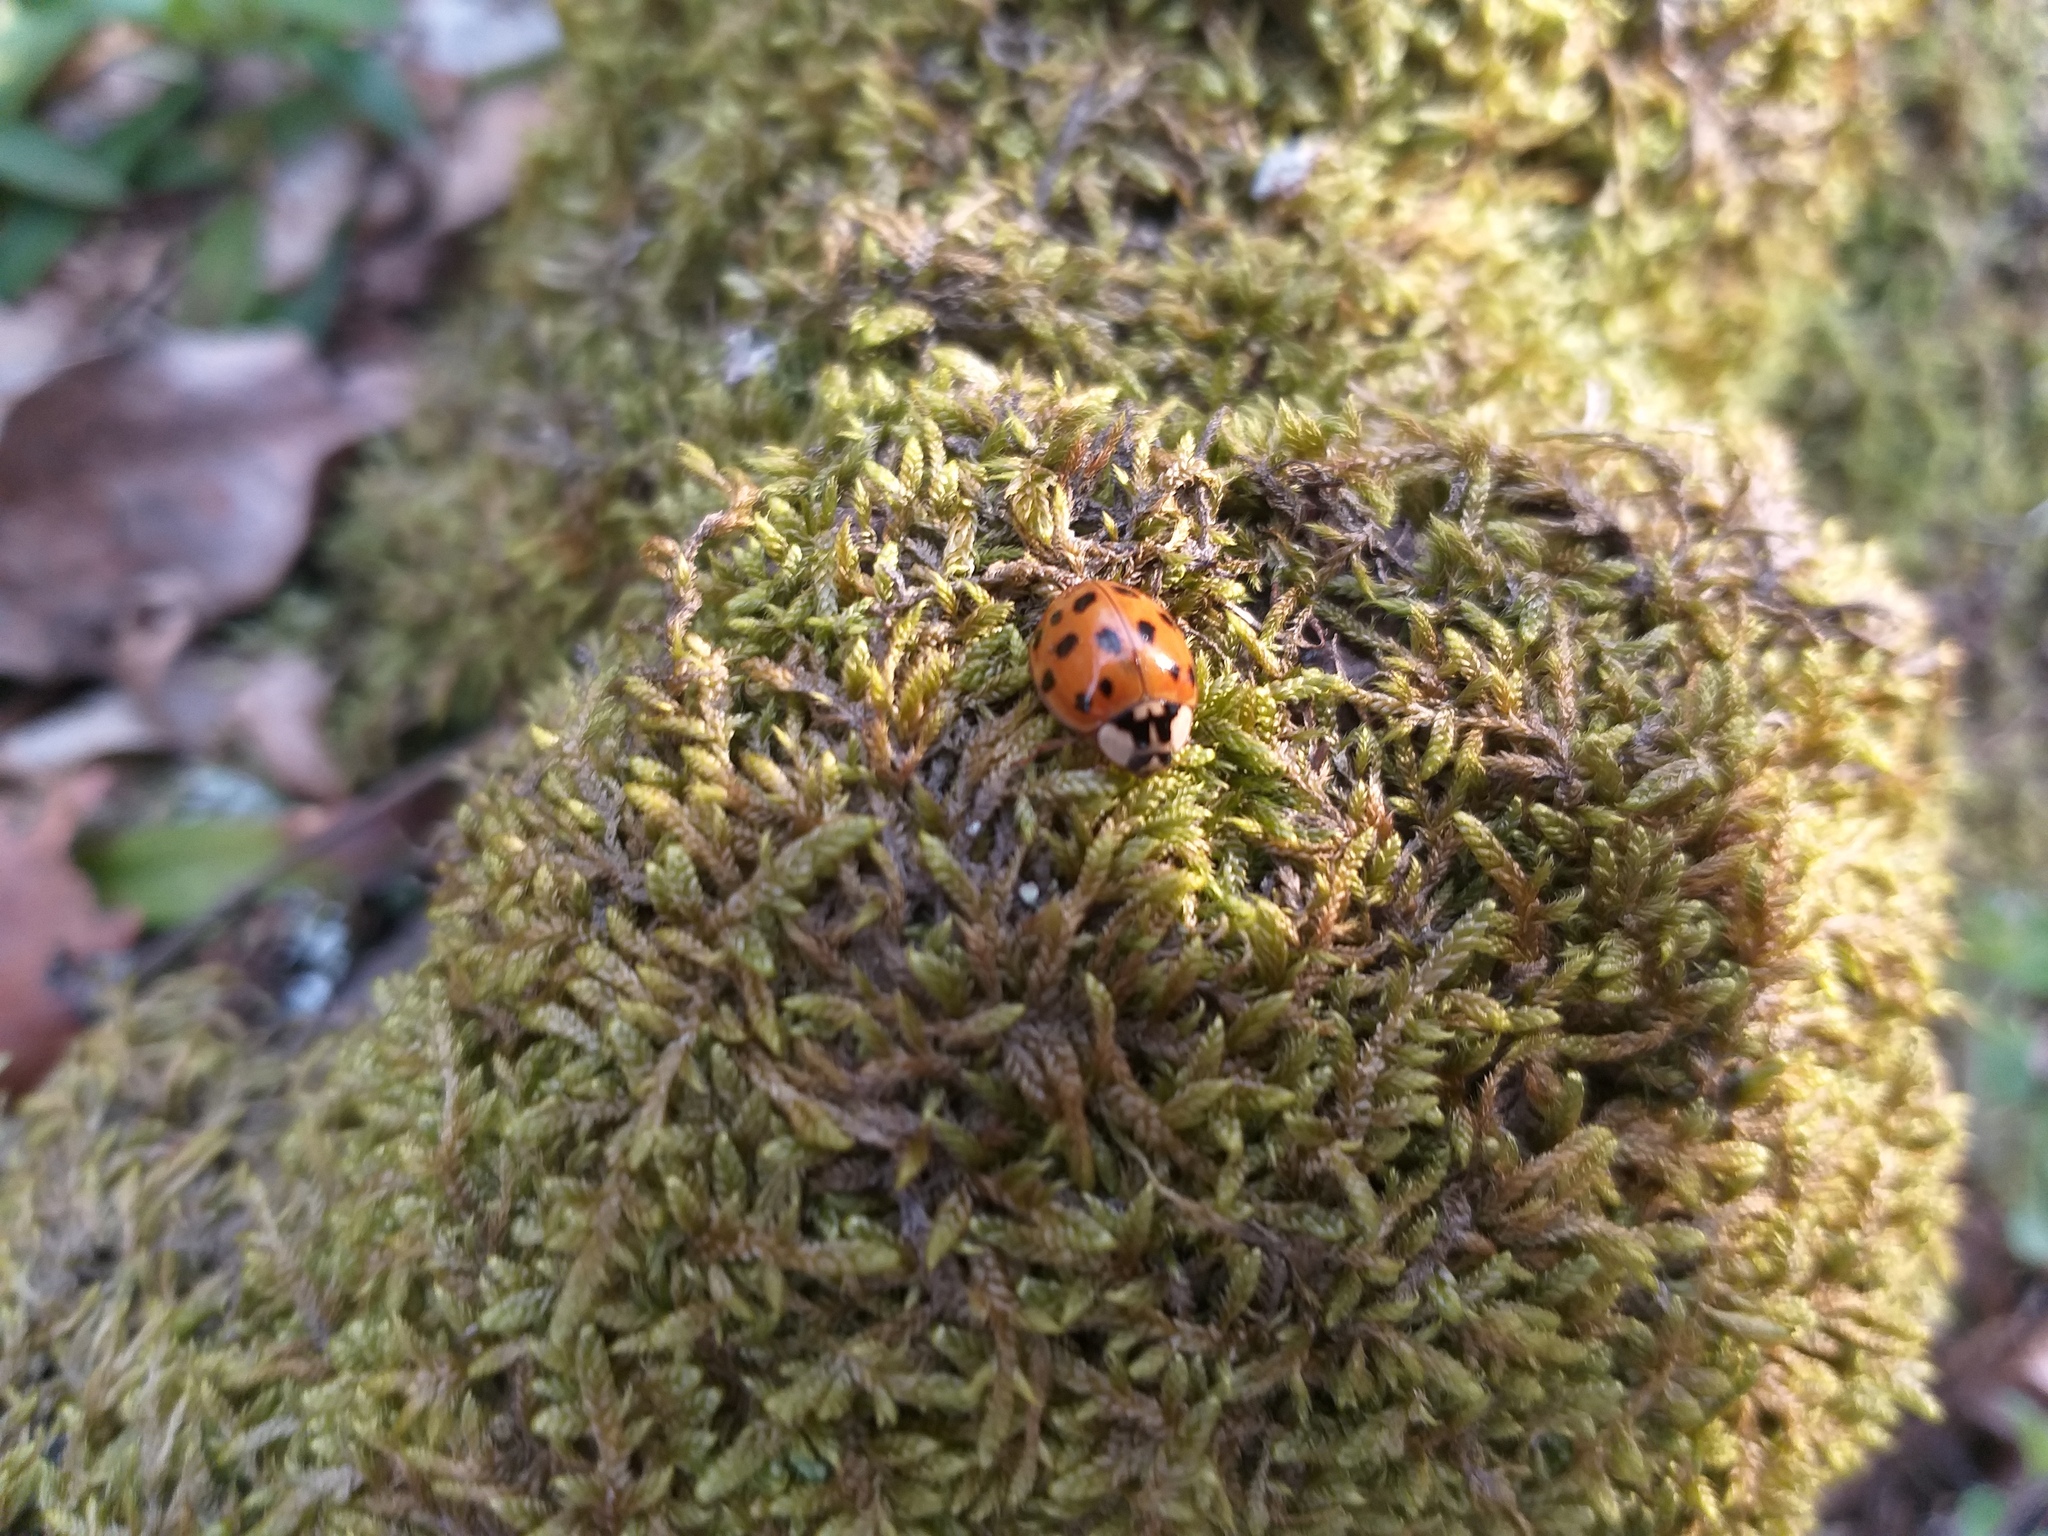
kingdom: Animalia
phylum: Arthropoda
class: Insecta
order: Coleoptera
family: Coccinellidae
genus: Harmonia
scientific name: Harmonia axyridis
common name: Harlequin ladybird
